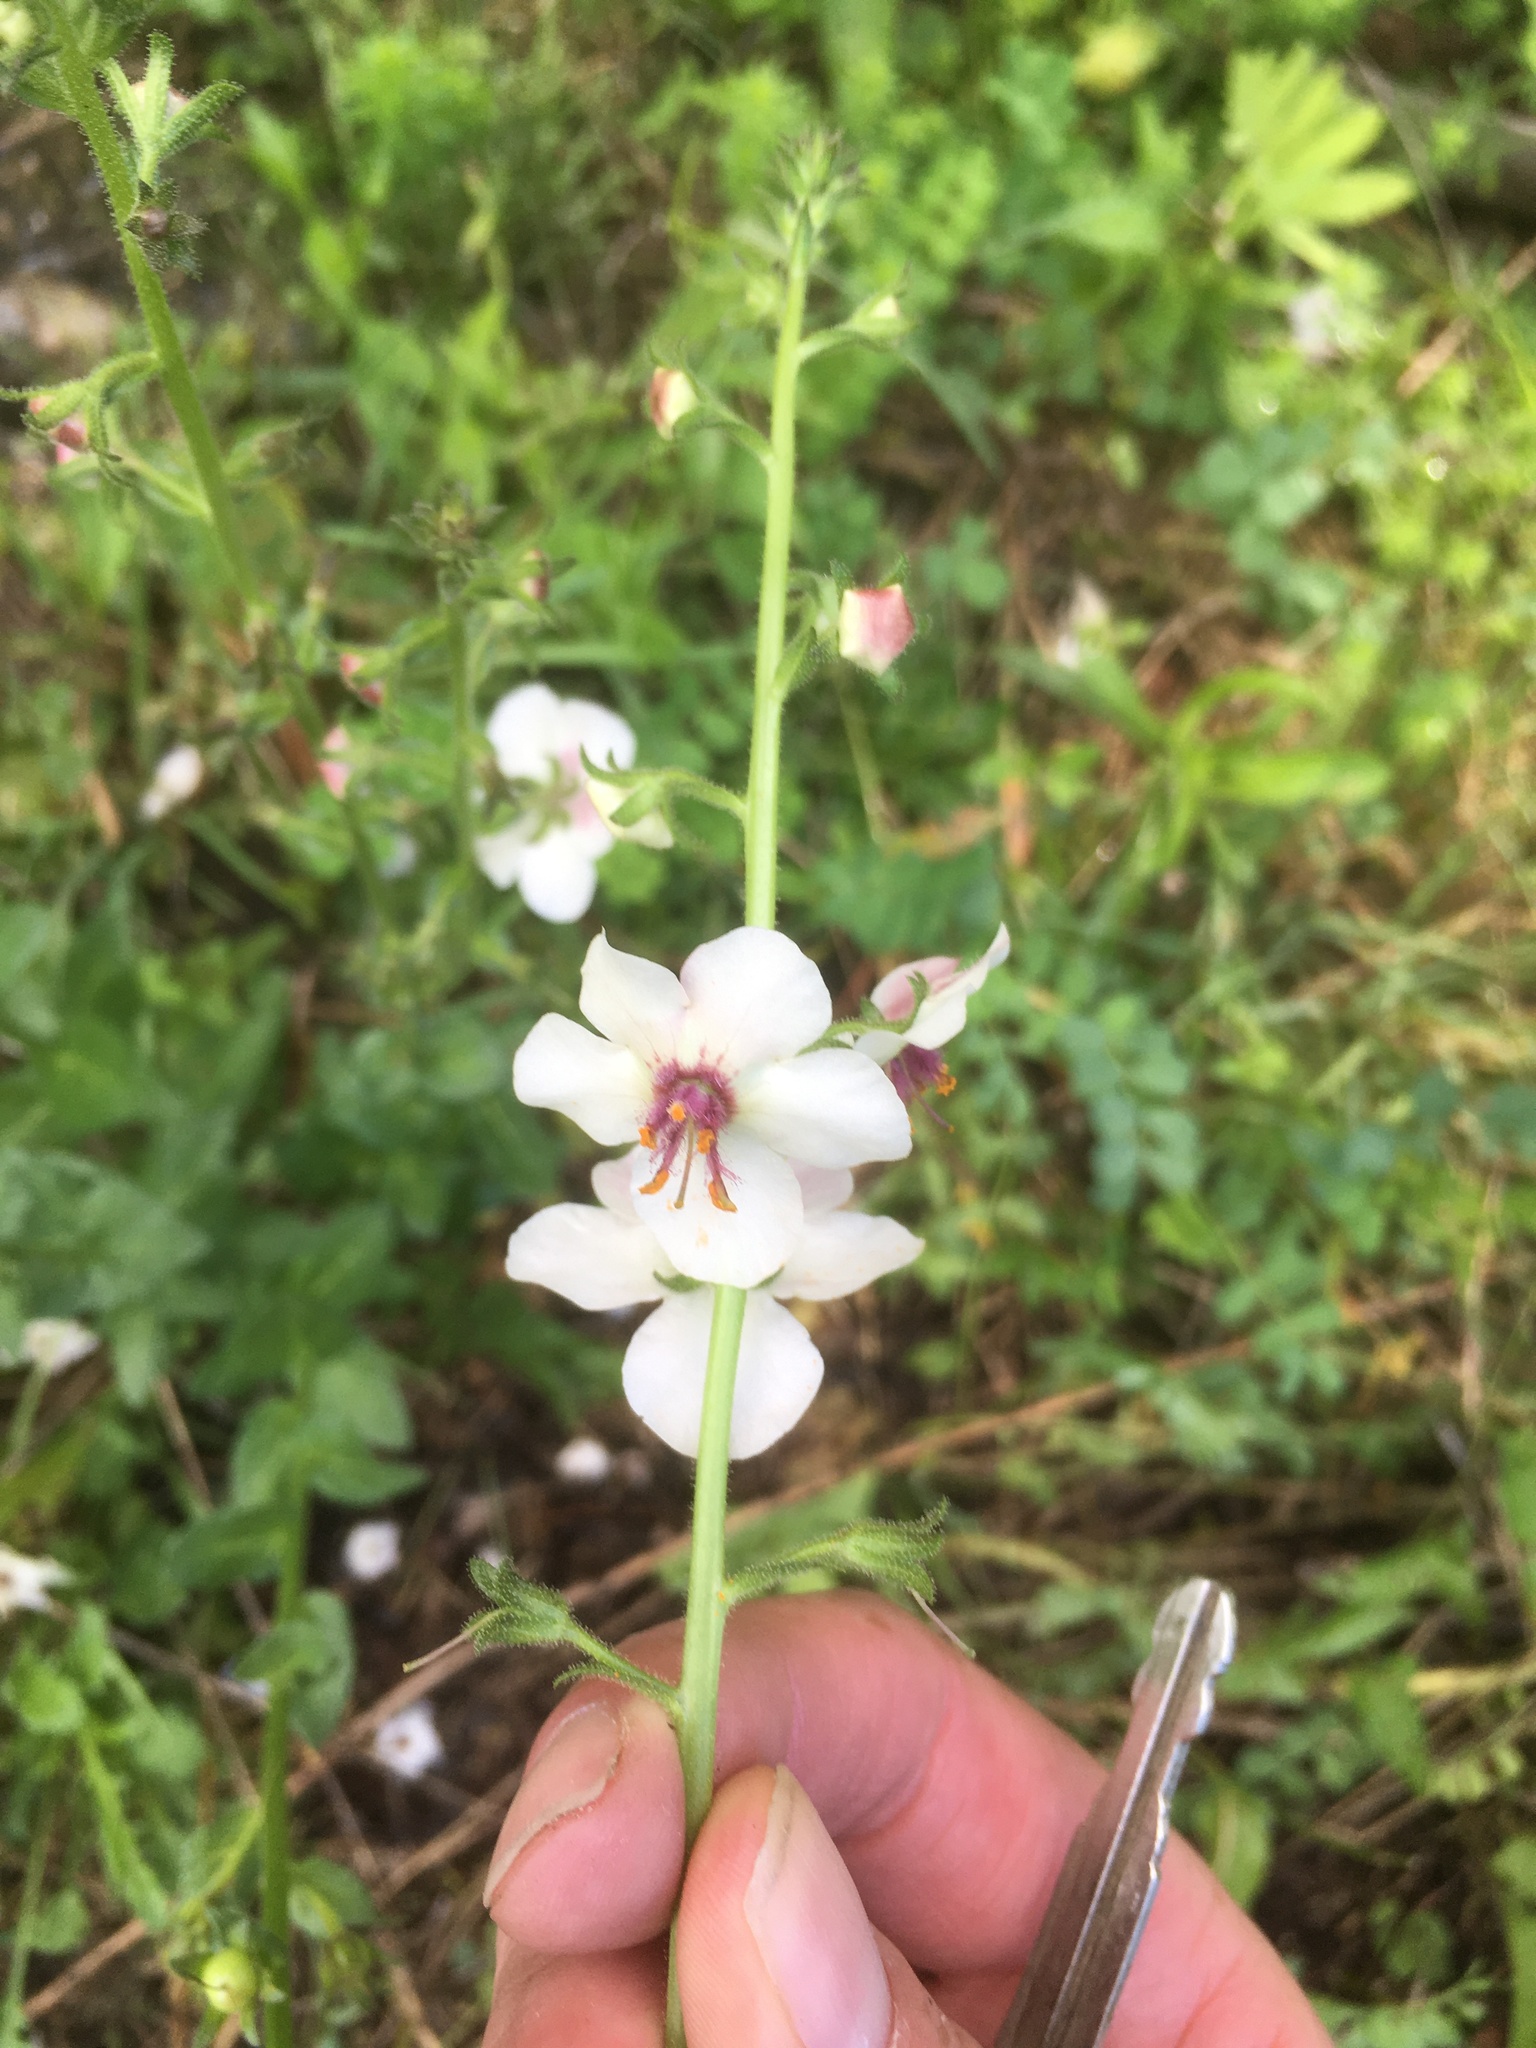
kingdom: Plantae
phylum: Tracheophyta
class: Magnoliopsida
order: Lamiales
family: Scrophulariaceae
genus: Verbascum
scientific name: Verbascum blattaria
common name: Moth mullein
